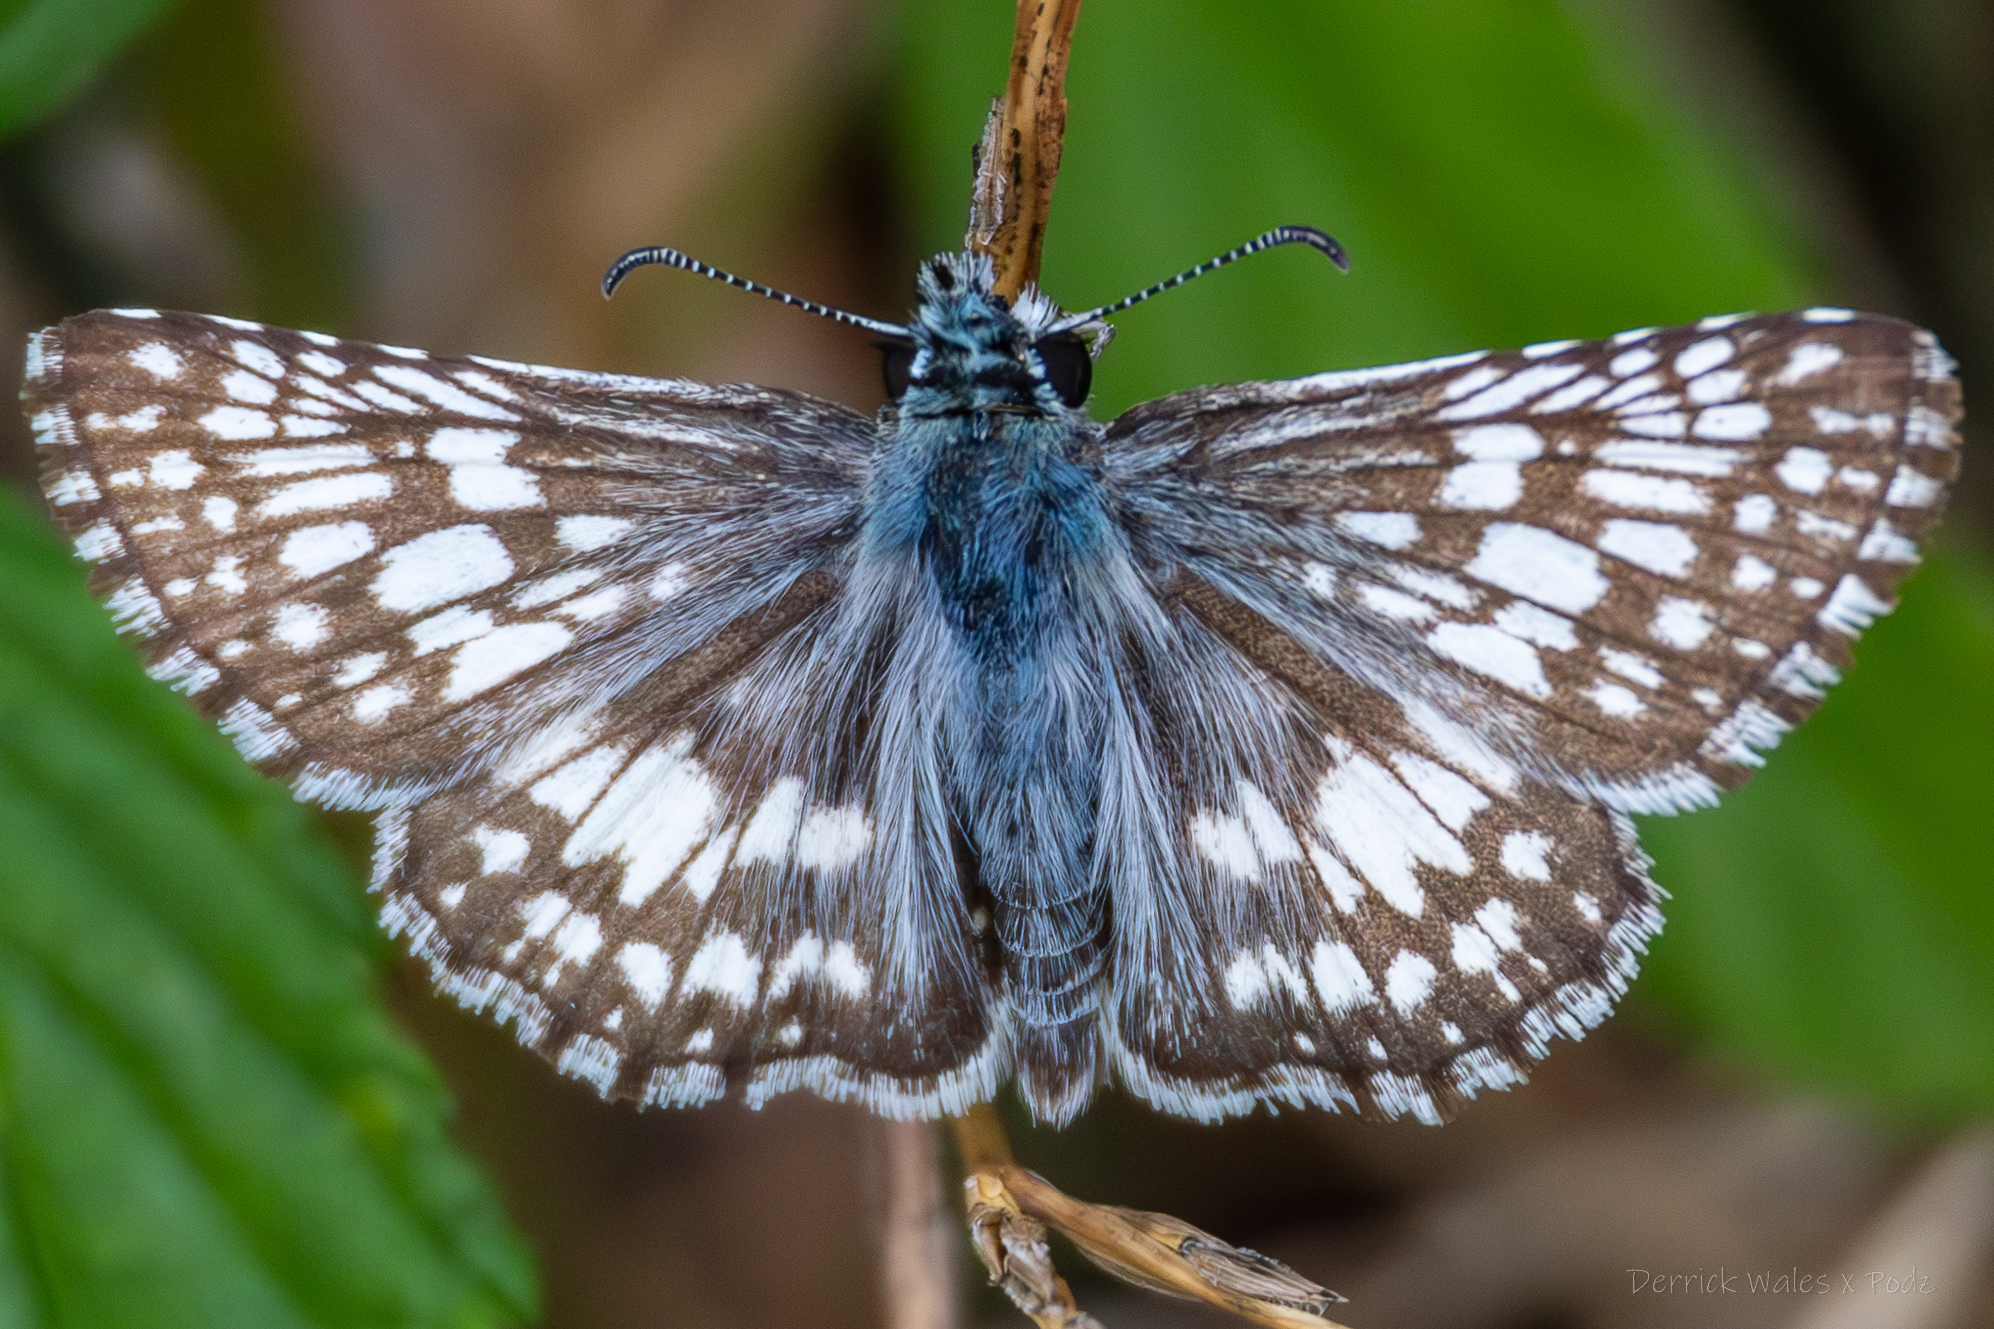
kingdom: Animalia
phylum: Arthropoda
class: Insecta
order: Lepidoptera
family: Hesperiidae
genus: Burnsius
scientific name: Burnsius
